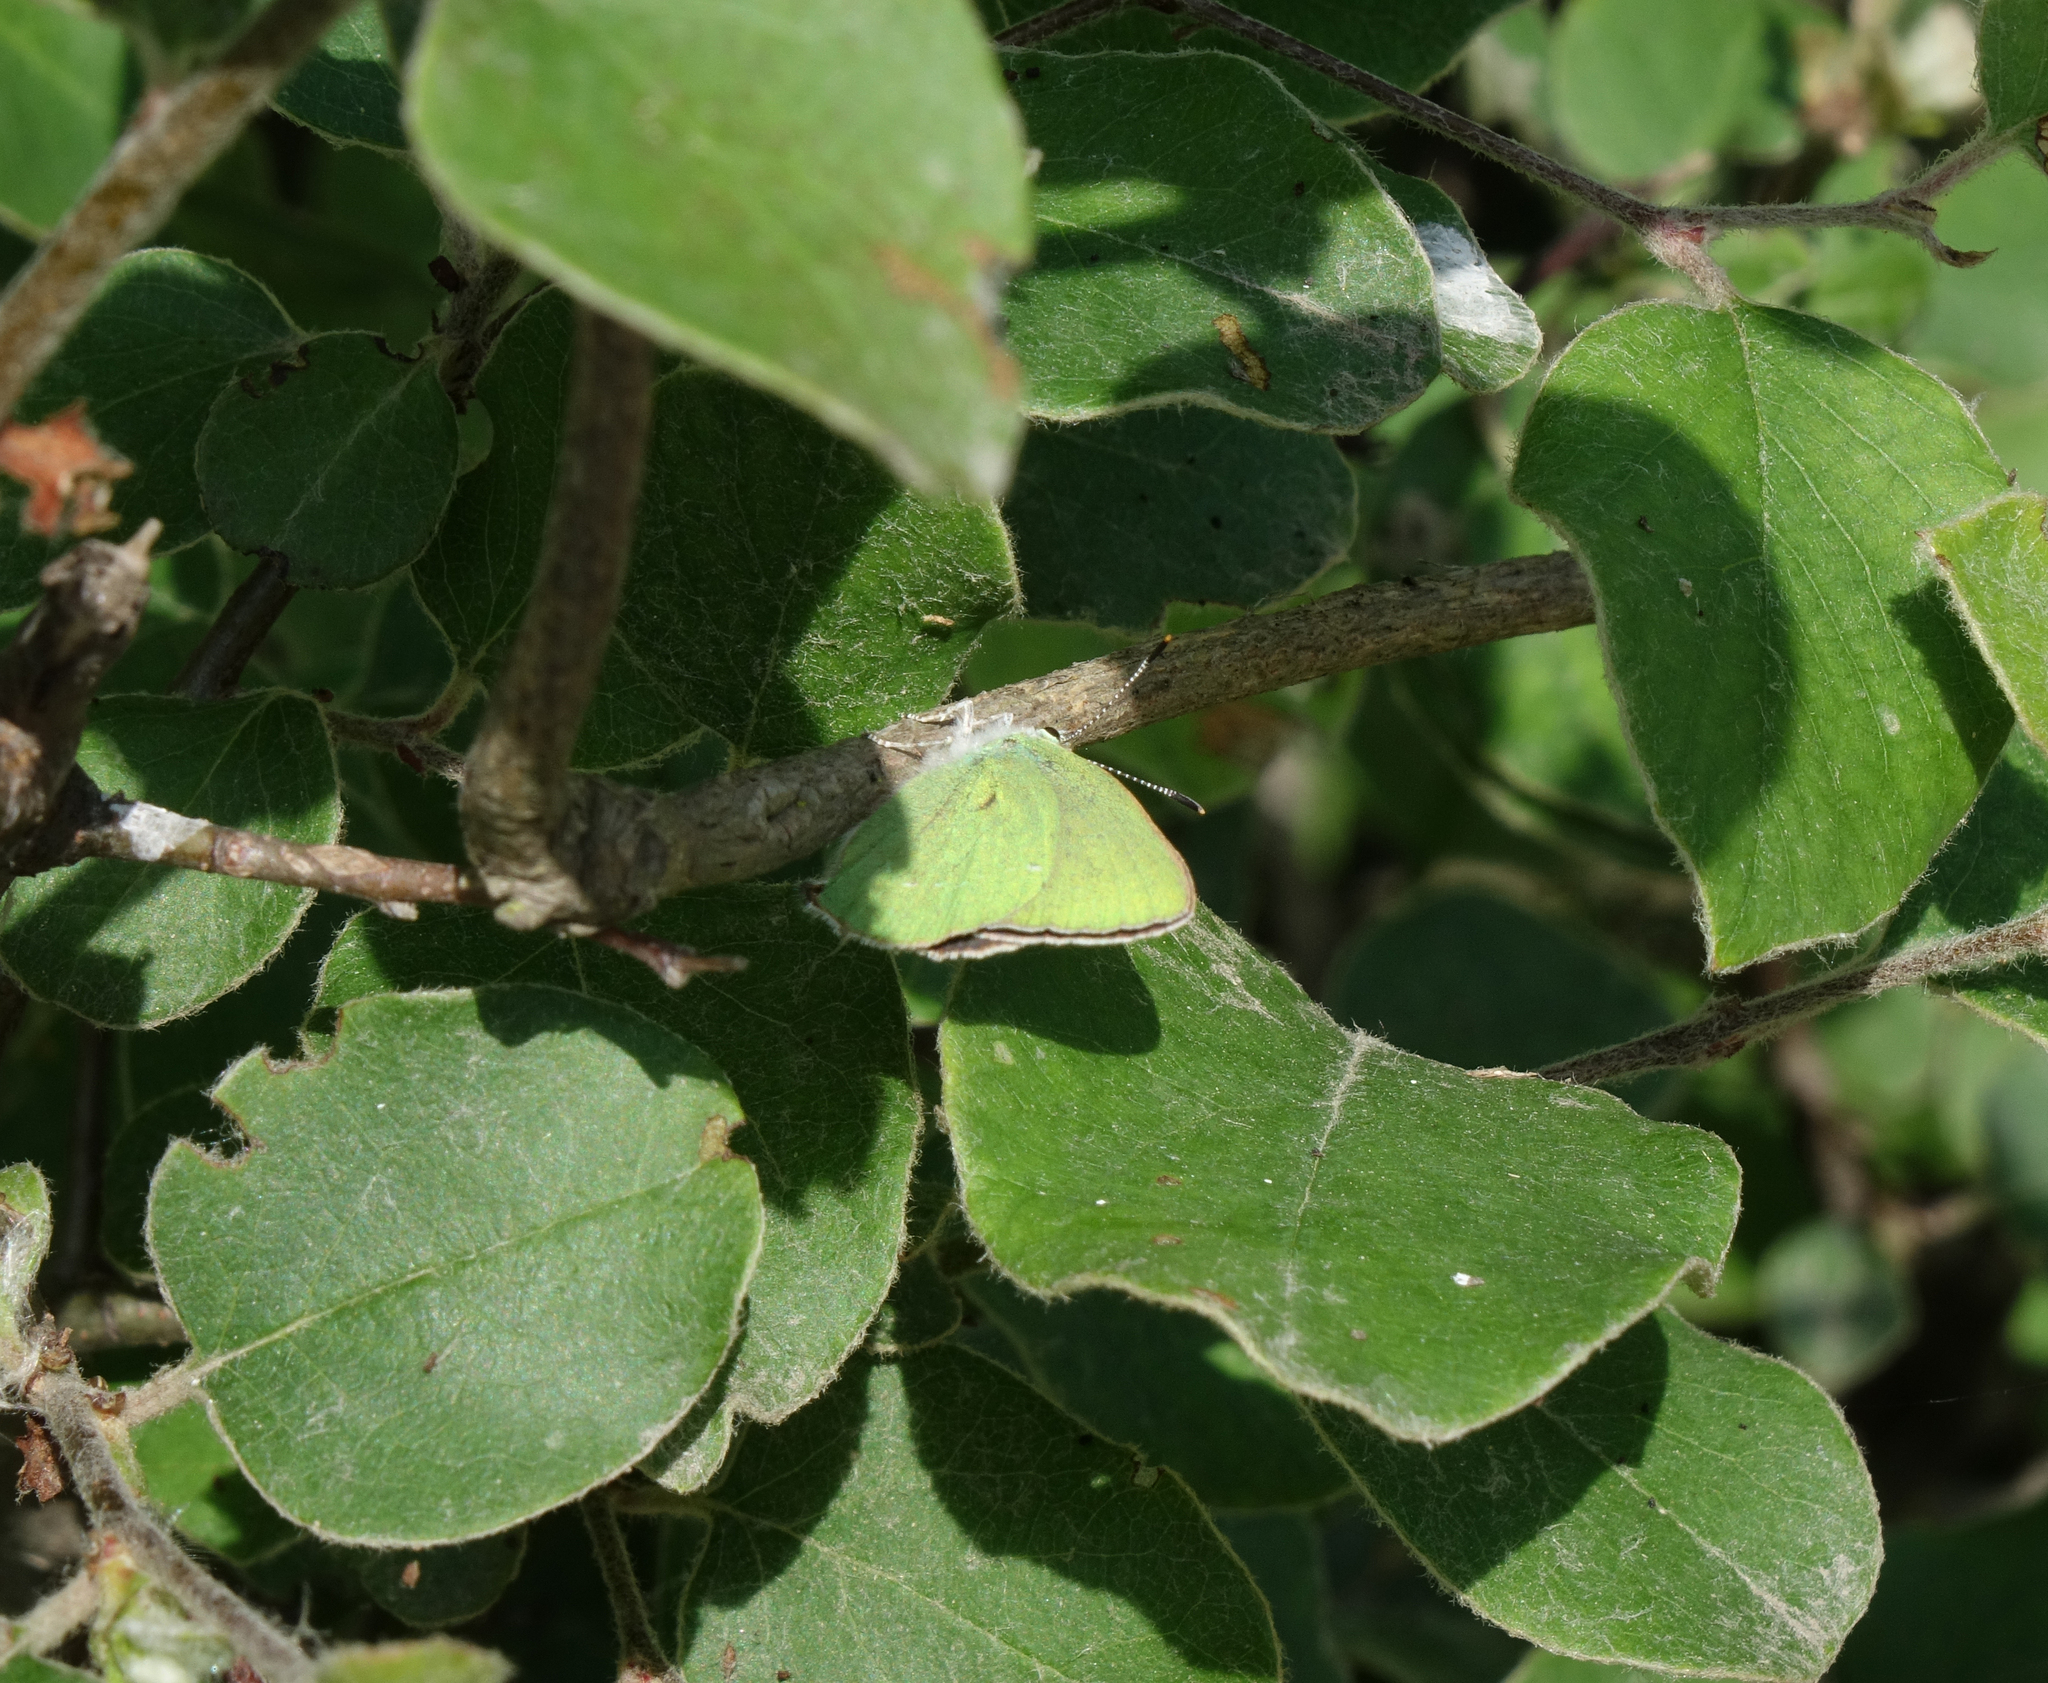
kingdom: Plantae
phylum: Tracheophyta
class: Magnoliopsida
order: Rosales
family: Rosaceae
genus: Cydonia
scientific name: Cydonia oblonga
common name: Quince
